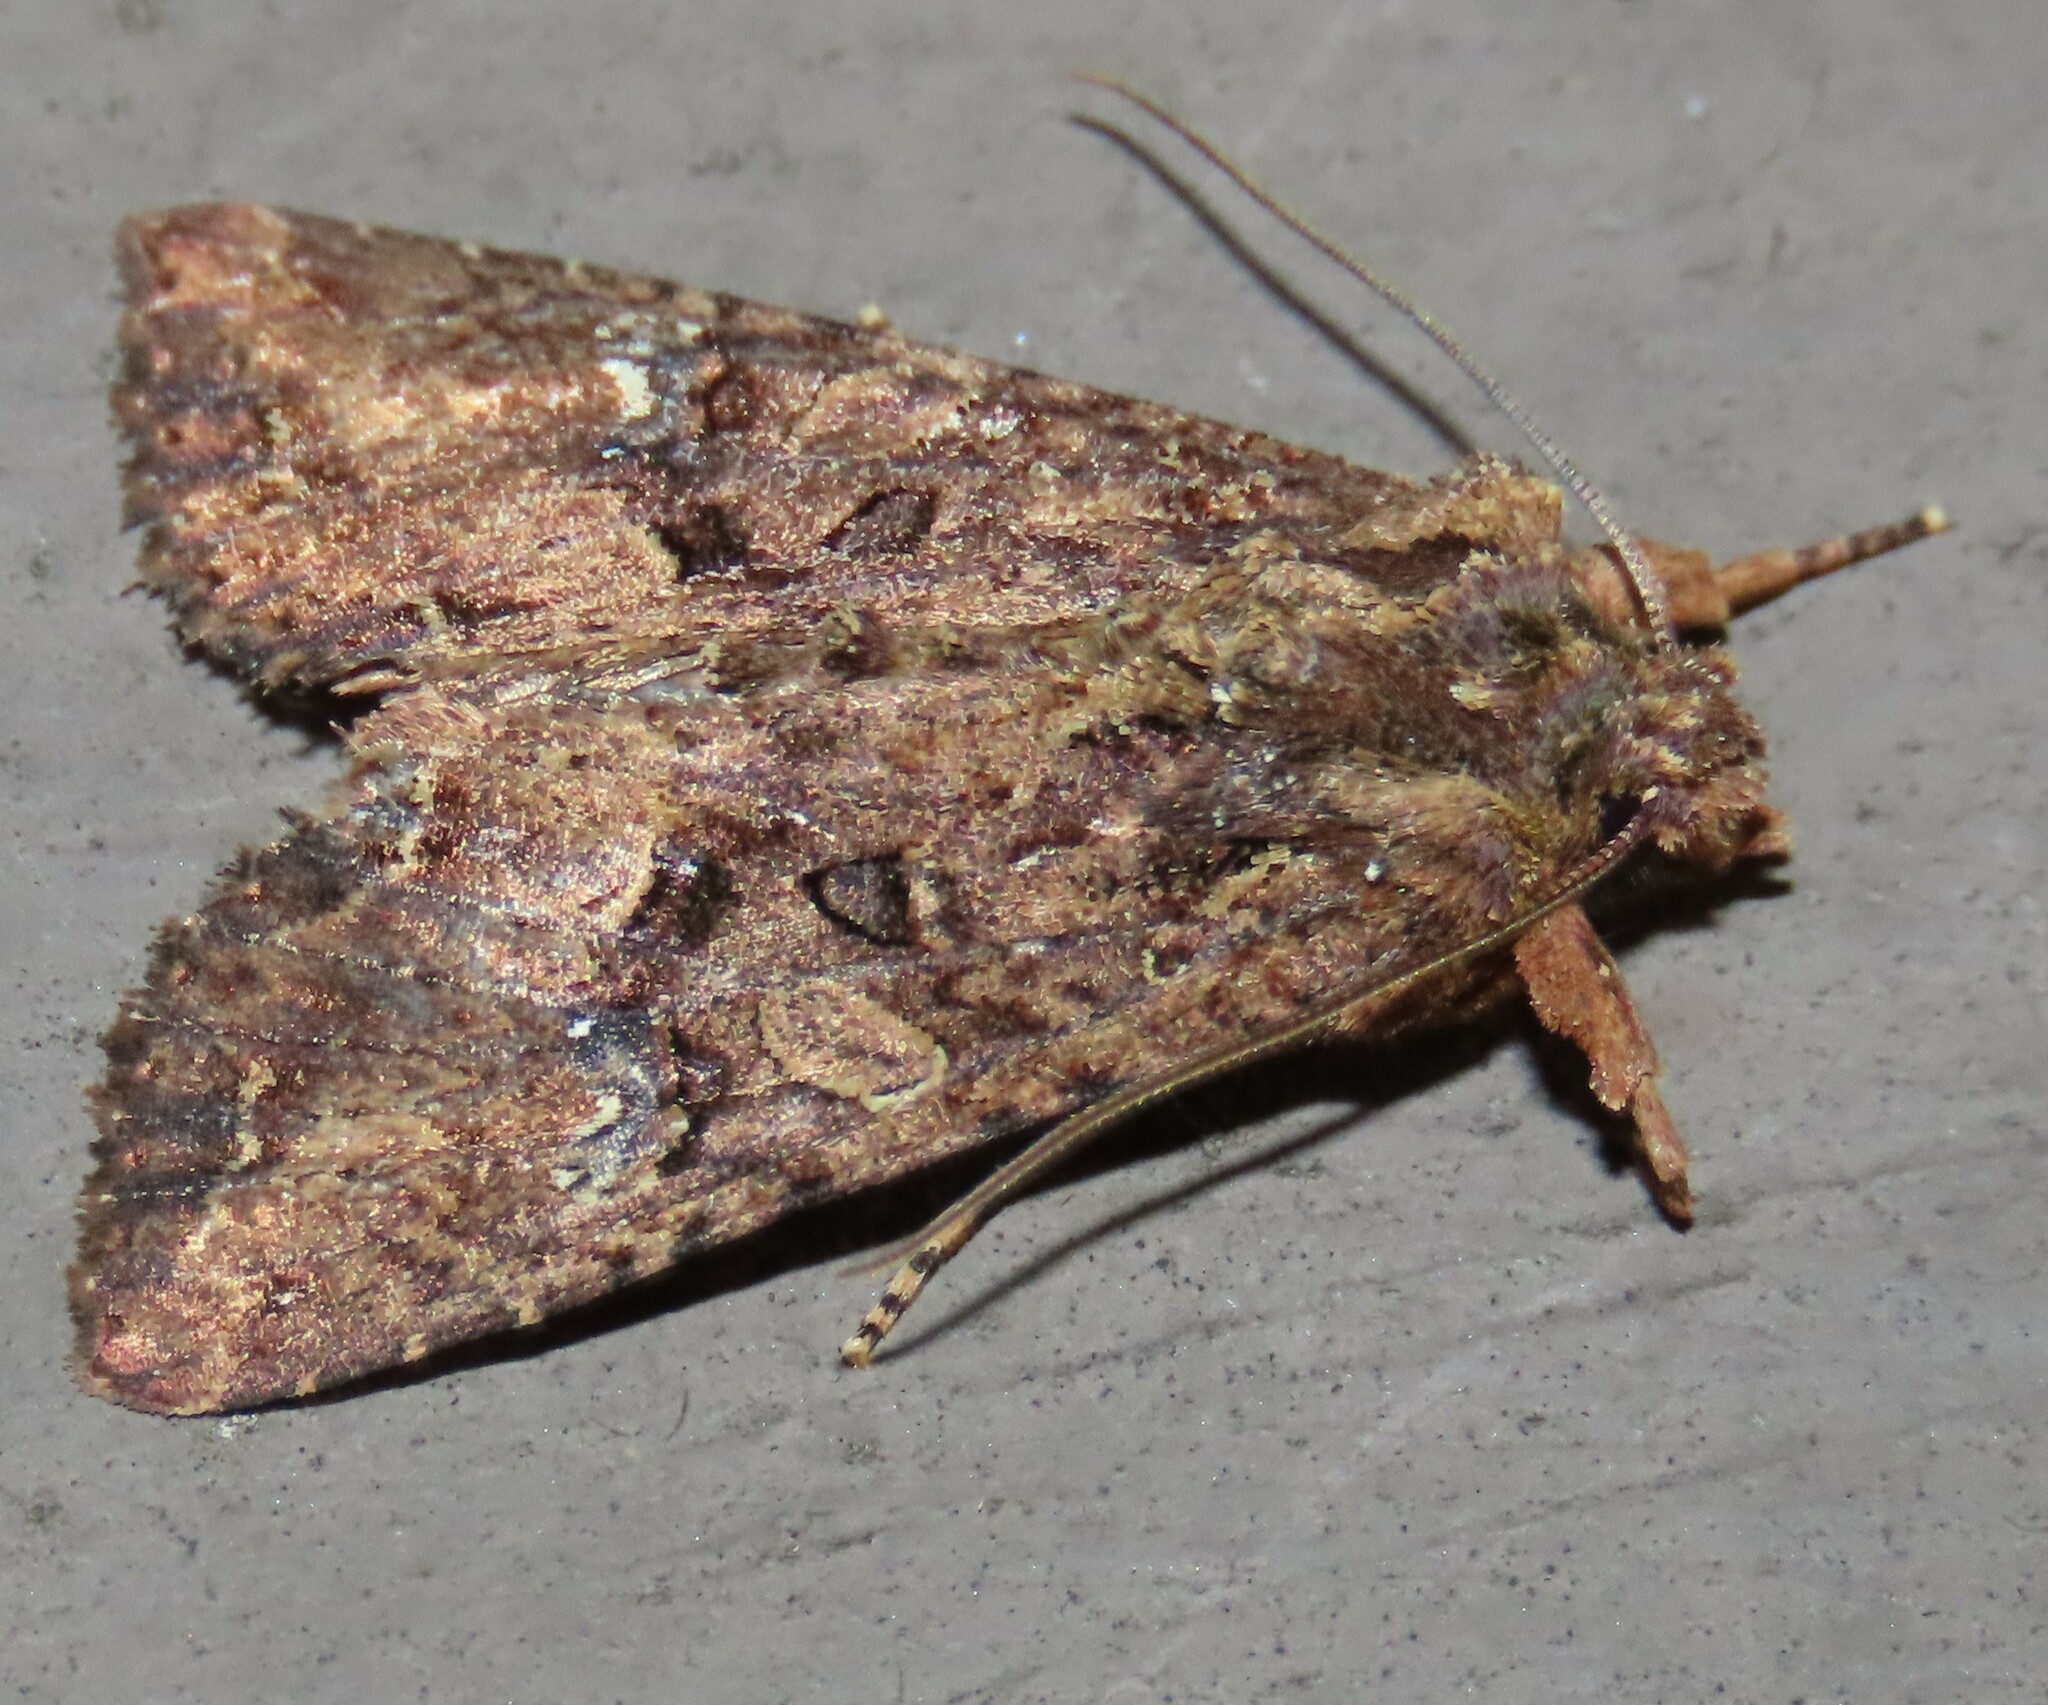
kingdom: Animalia
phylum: Arthropoda
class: Insecta
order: Lepidoptera
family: Noctuidae
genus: Meterana
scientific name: Meterana ochthistis
